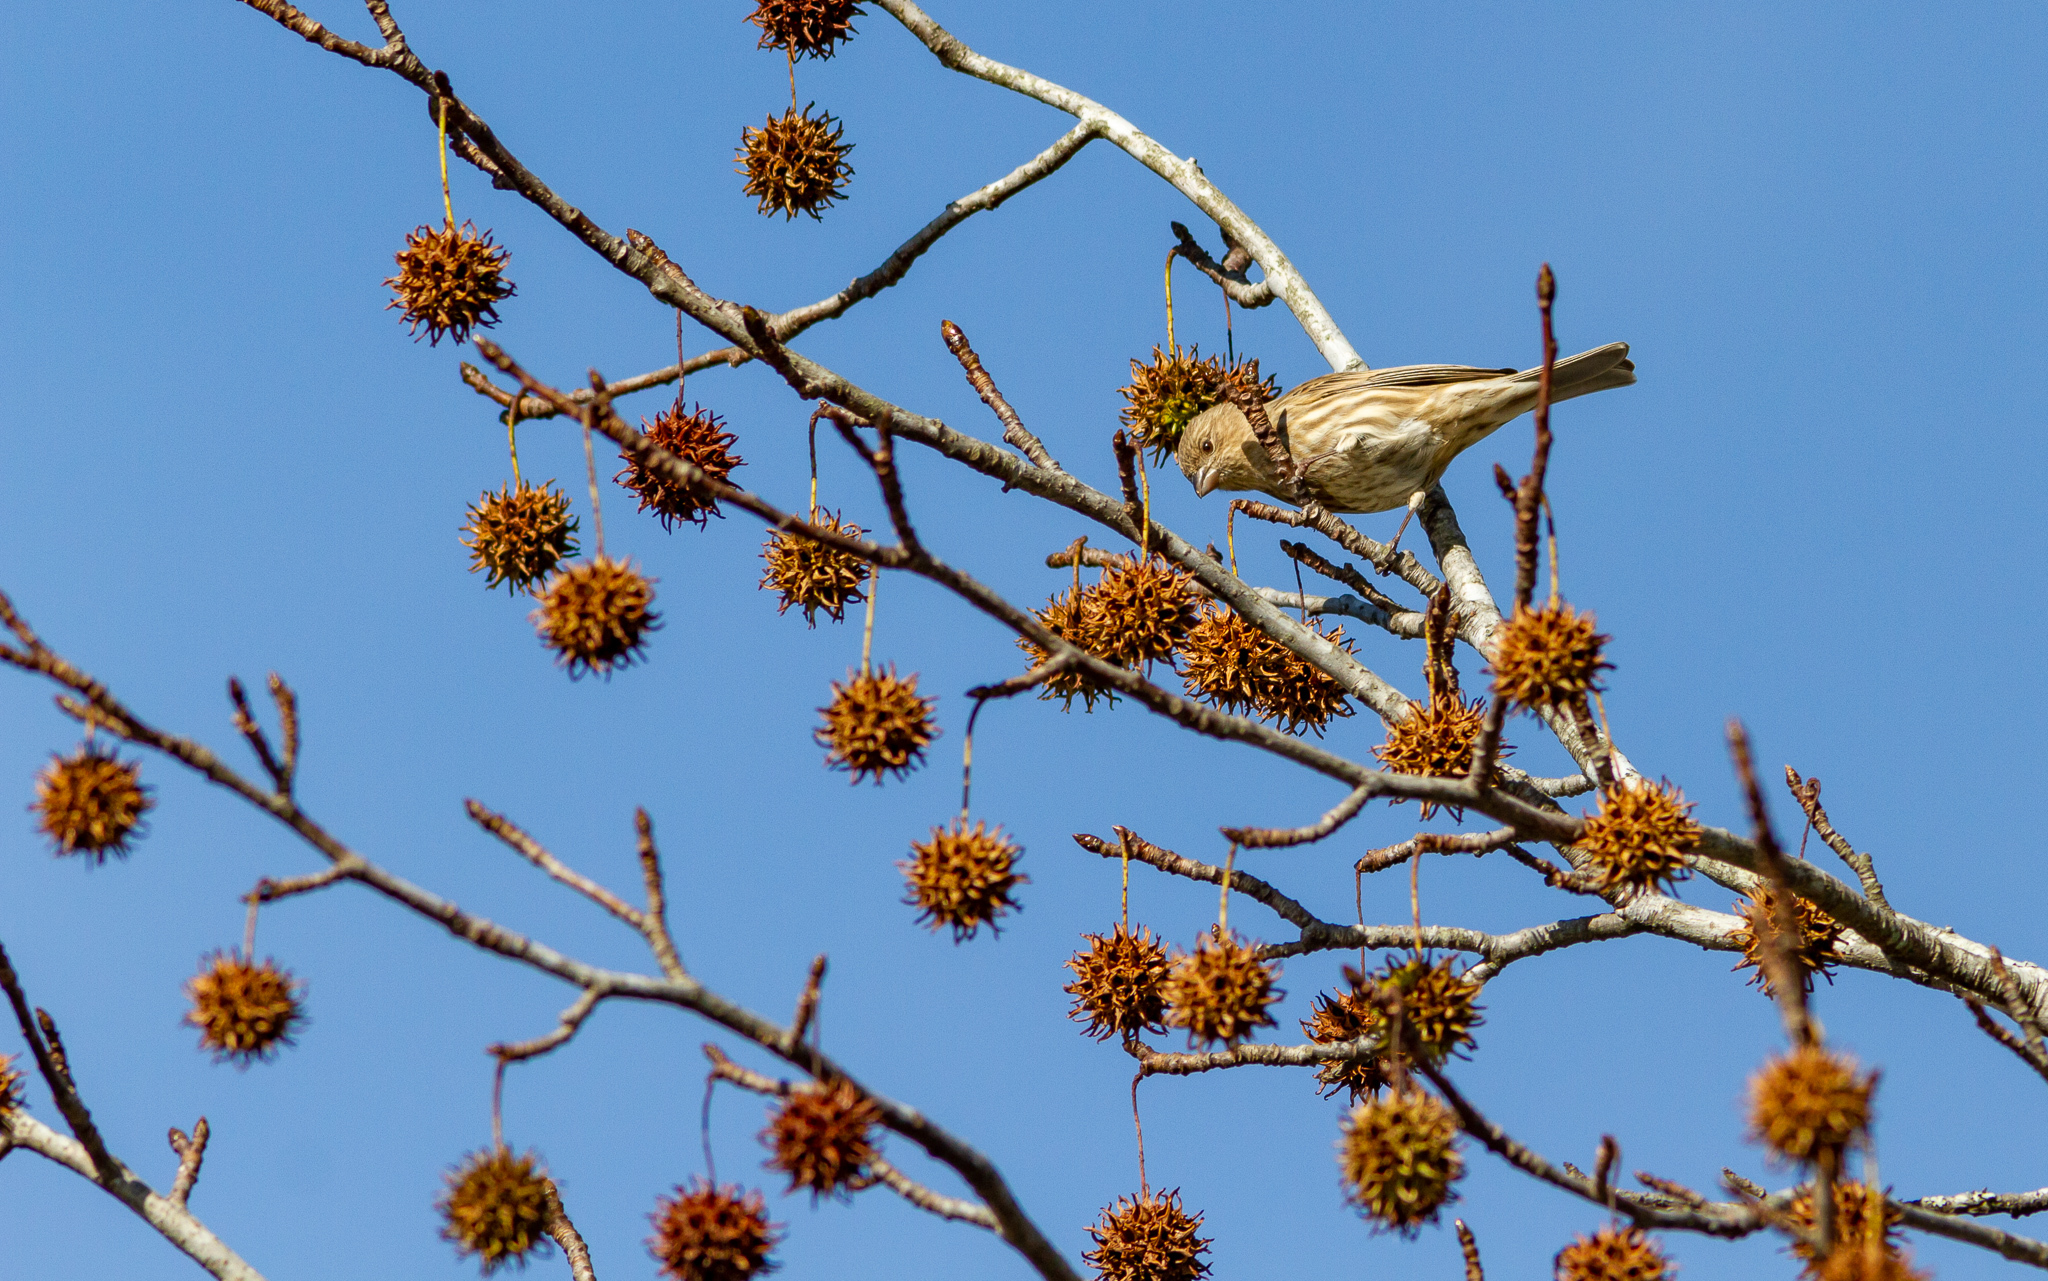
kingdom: Animalia
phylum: Chordata
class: Aves
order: Passeriformes
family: Fringillidae
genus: Haemorhous
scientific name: Haemorhous mexicanus
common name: House finch
